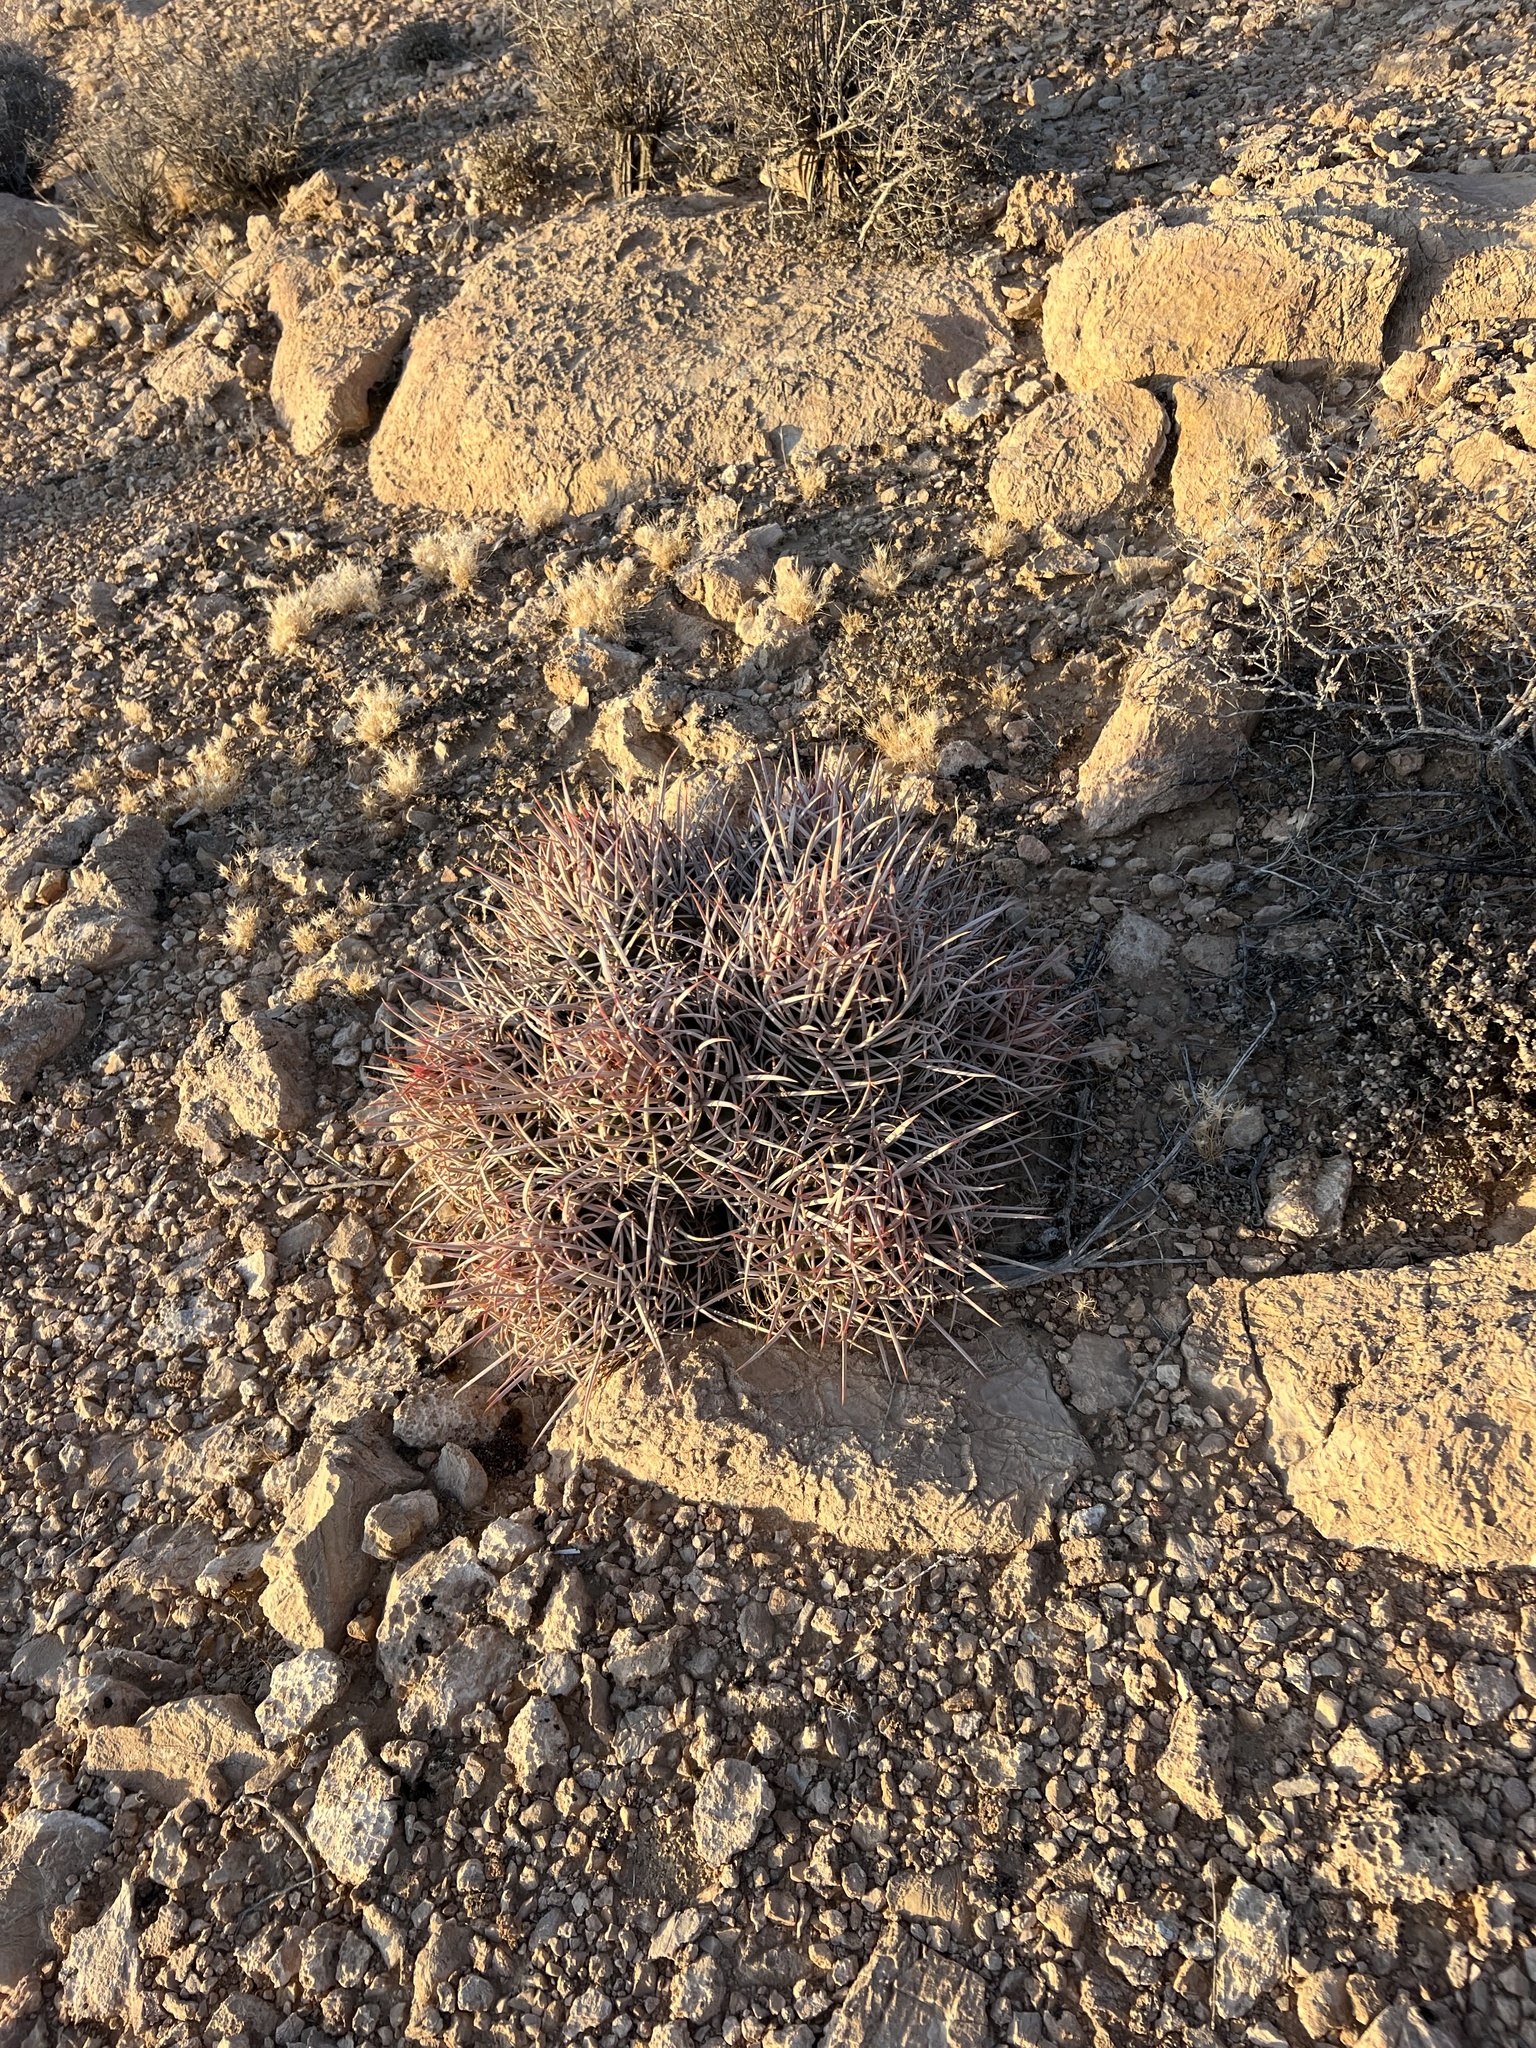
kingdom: Plantae
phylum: Tracheophyta
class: Magnoliopsida
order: Caryophyllales
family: Cactaceae
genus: Echinocactus
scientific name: Echinocactus polycephalus
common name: Cottontop cactus
